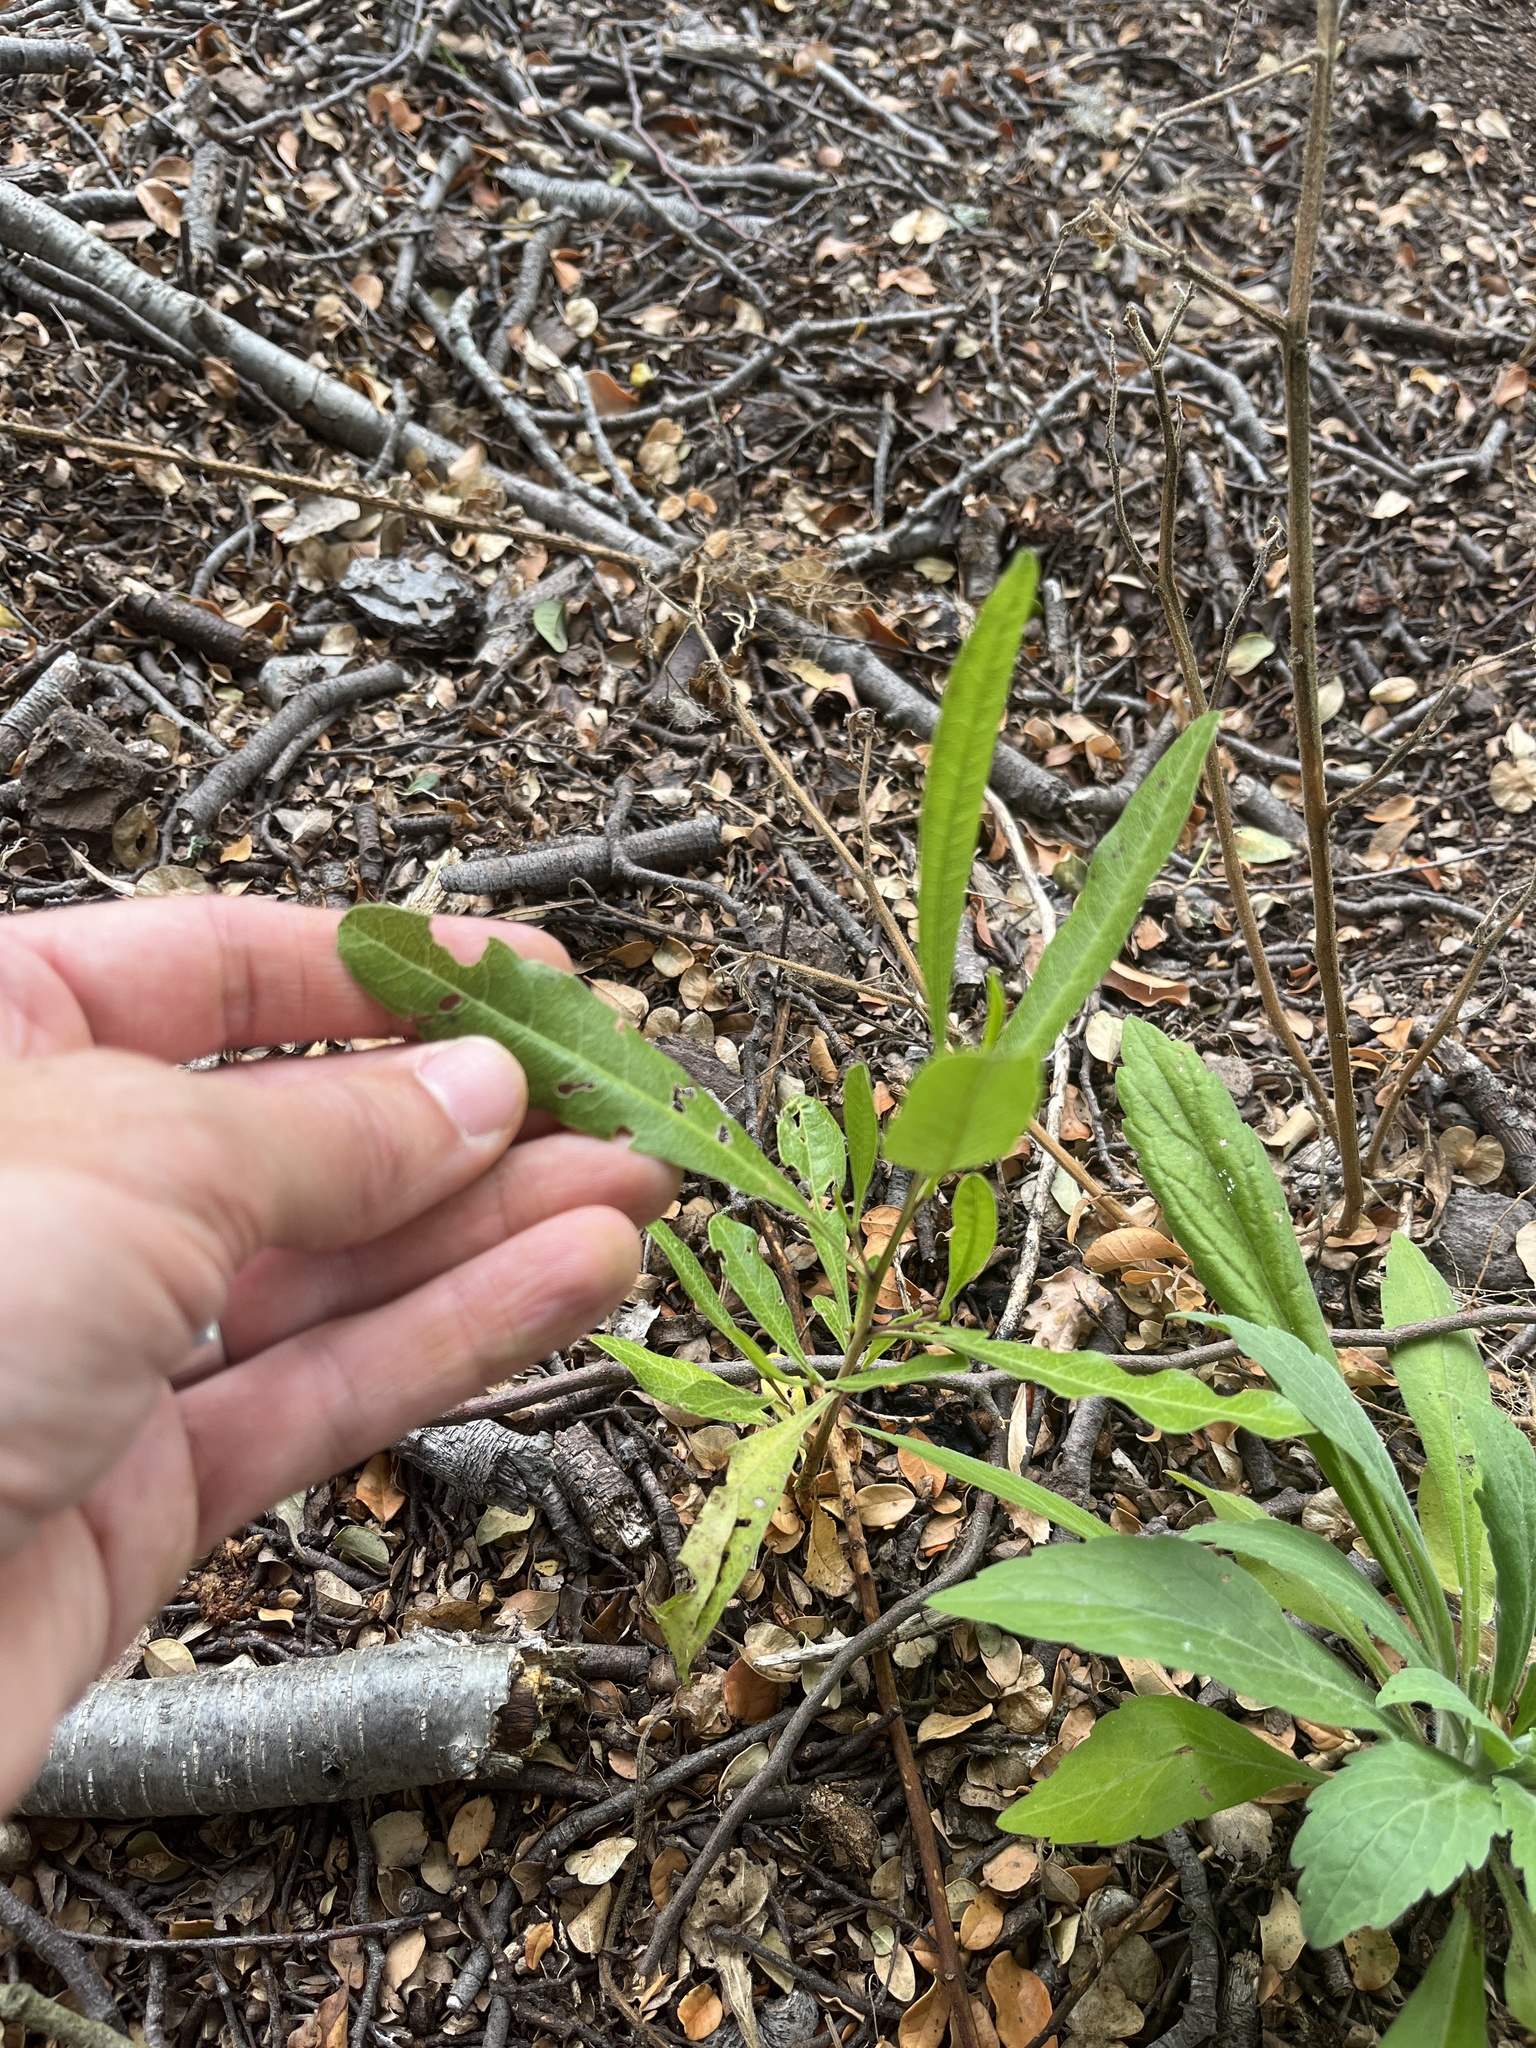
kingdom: Plantae
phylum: Tracheophyta
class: Magnoliopsida
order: Sapindales
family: Sapindaceae
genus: Dodonaea
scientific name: Dodonaea viscosa
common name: Hopbush
